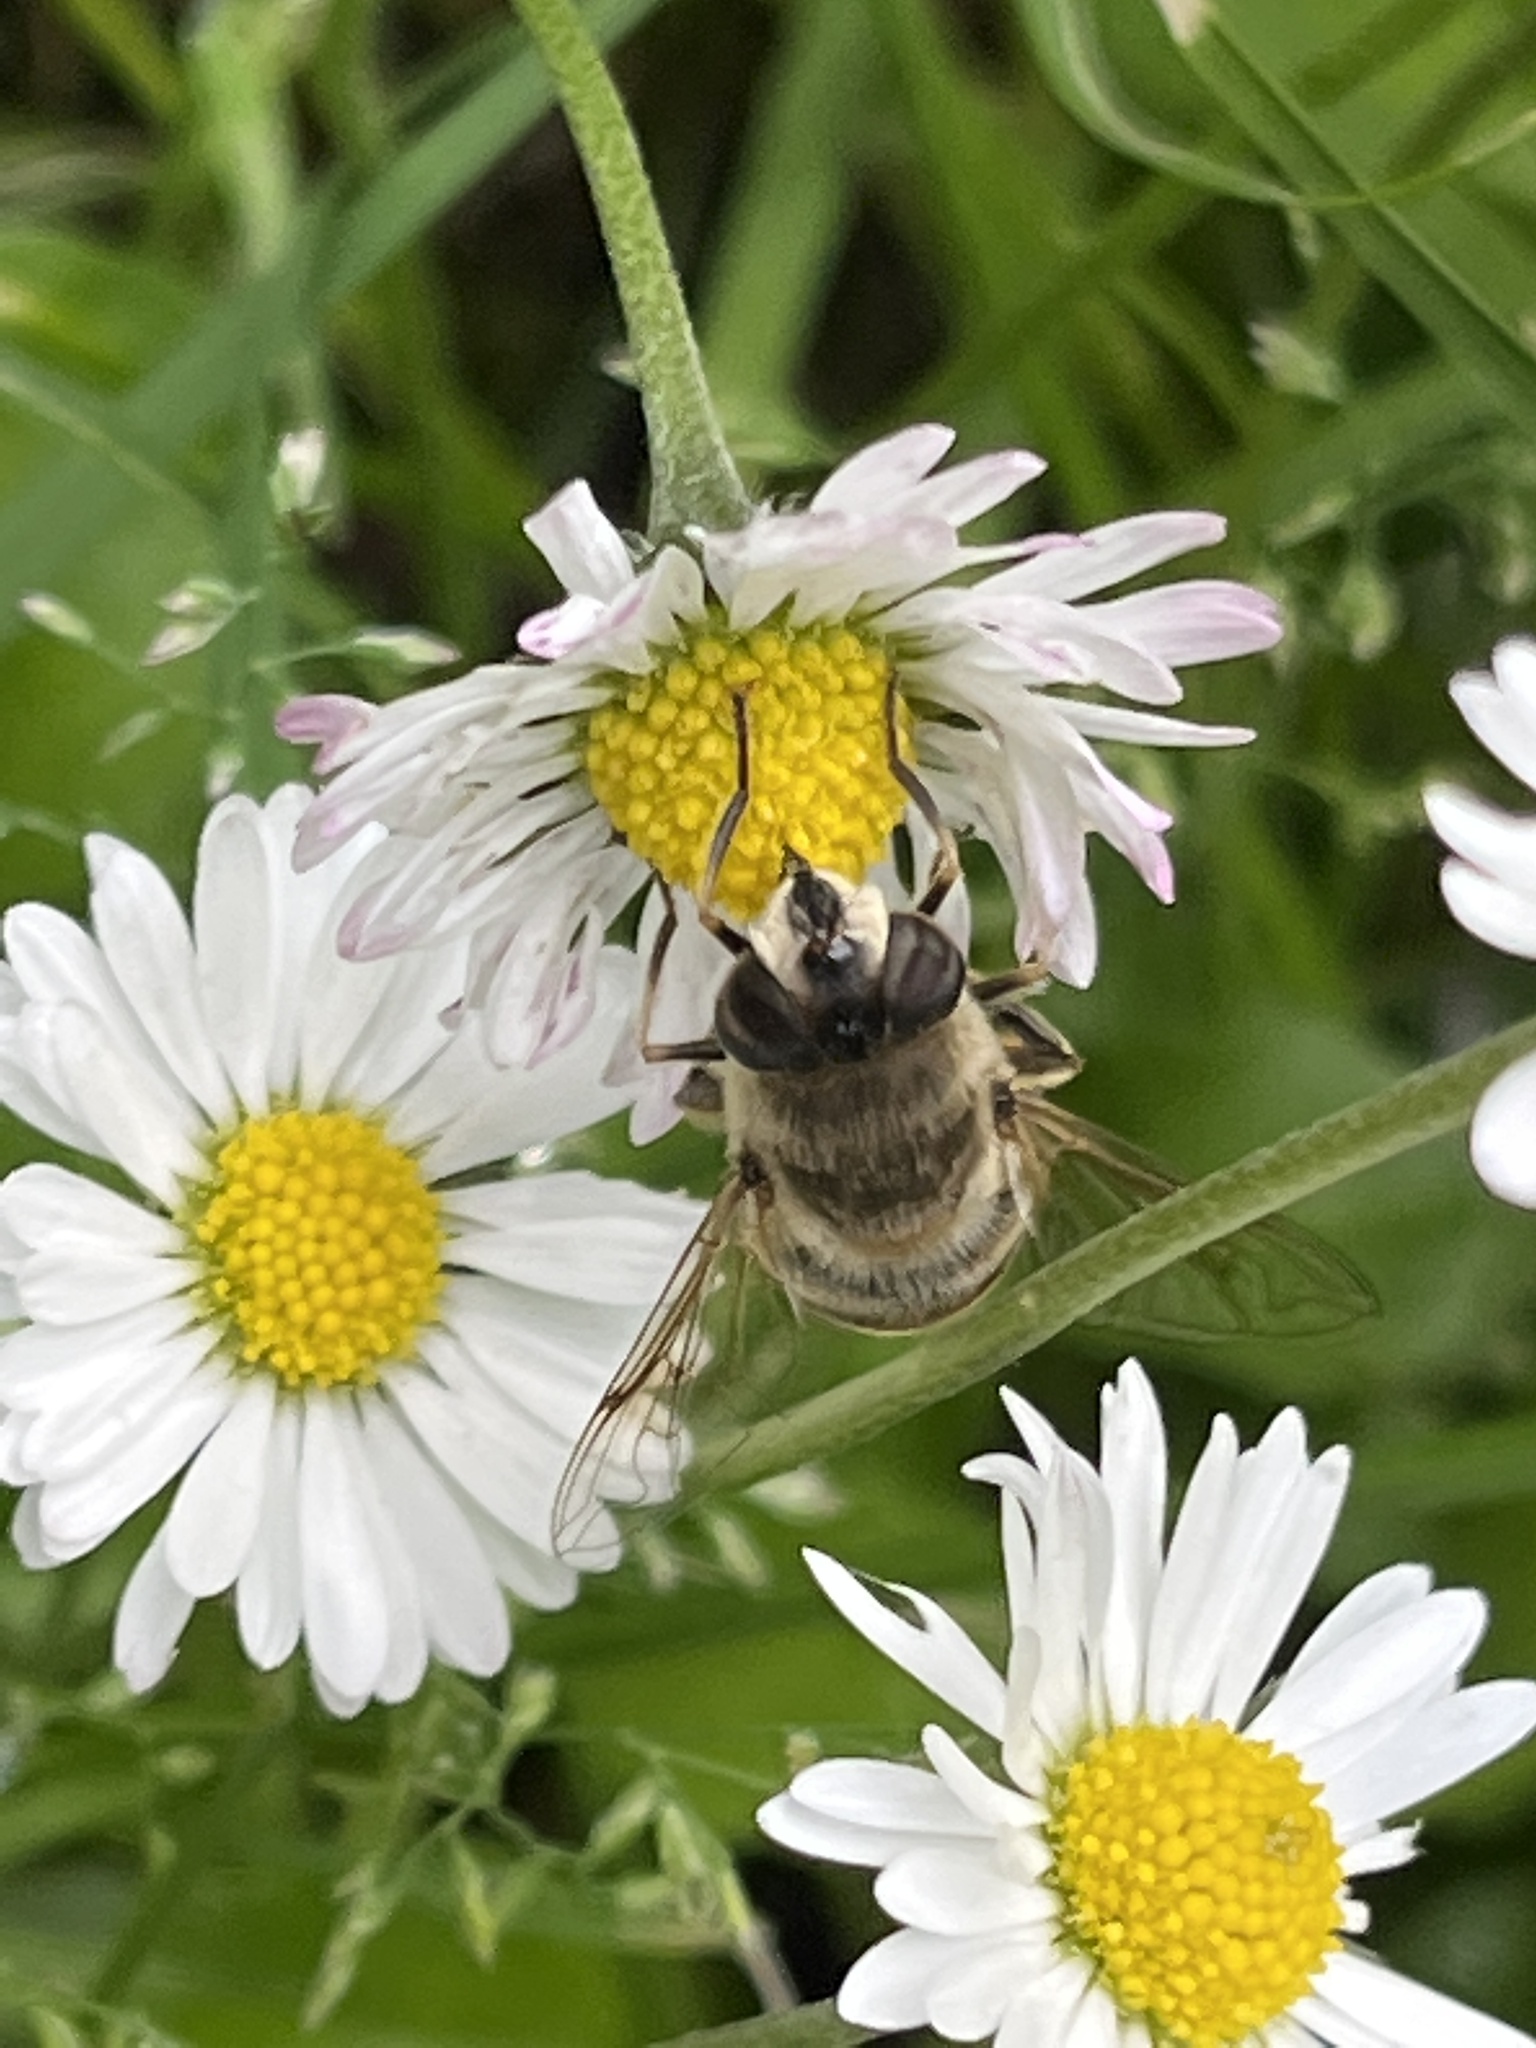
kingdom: Animalia
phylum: Arthropoda
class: Insecta
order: Diptera
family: Syrphidae
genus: Eristalis
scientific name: Eristalis tenax
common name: Drone fly
